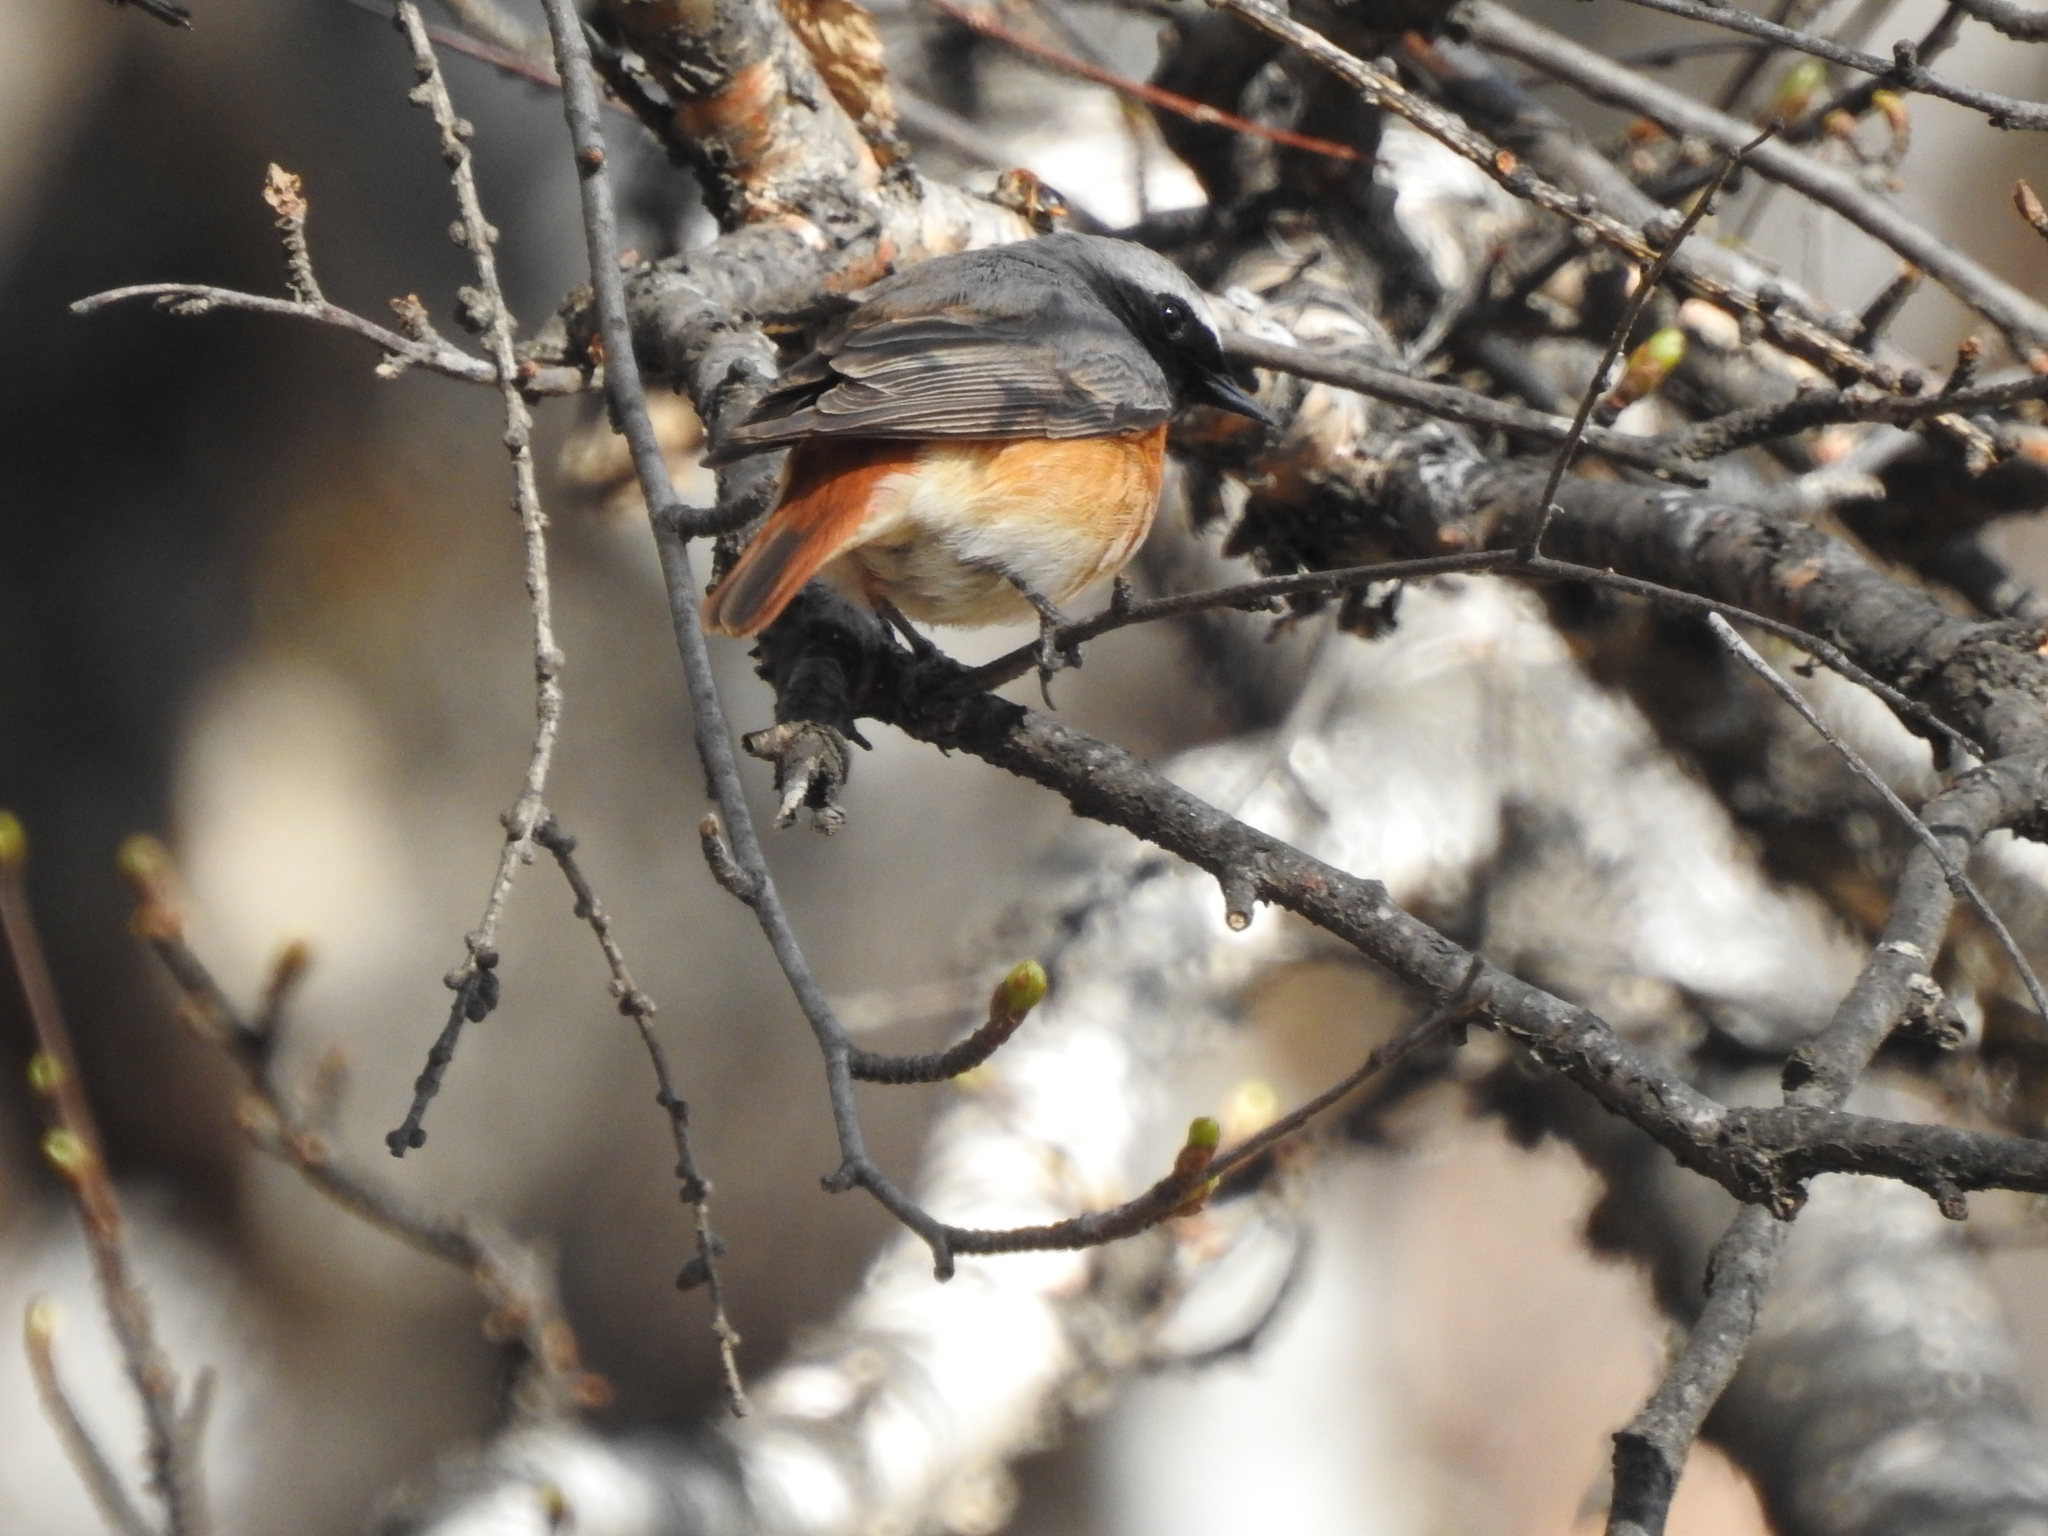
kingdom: Animalia
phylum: Chordata
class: Aves
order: Passeriformes
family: Muscicapidae
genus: Phoenicurus
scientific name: Phoenicurus phoenicurus
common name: Common redstart
